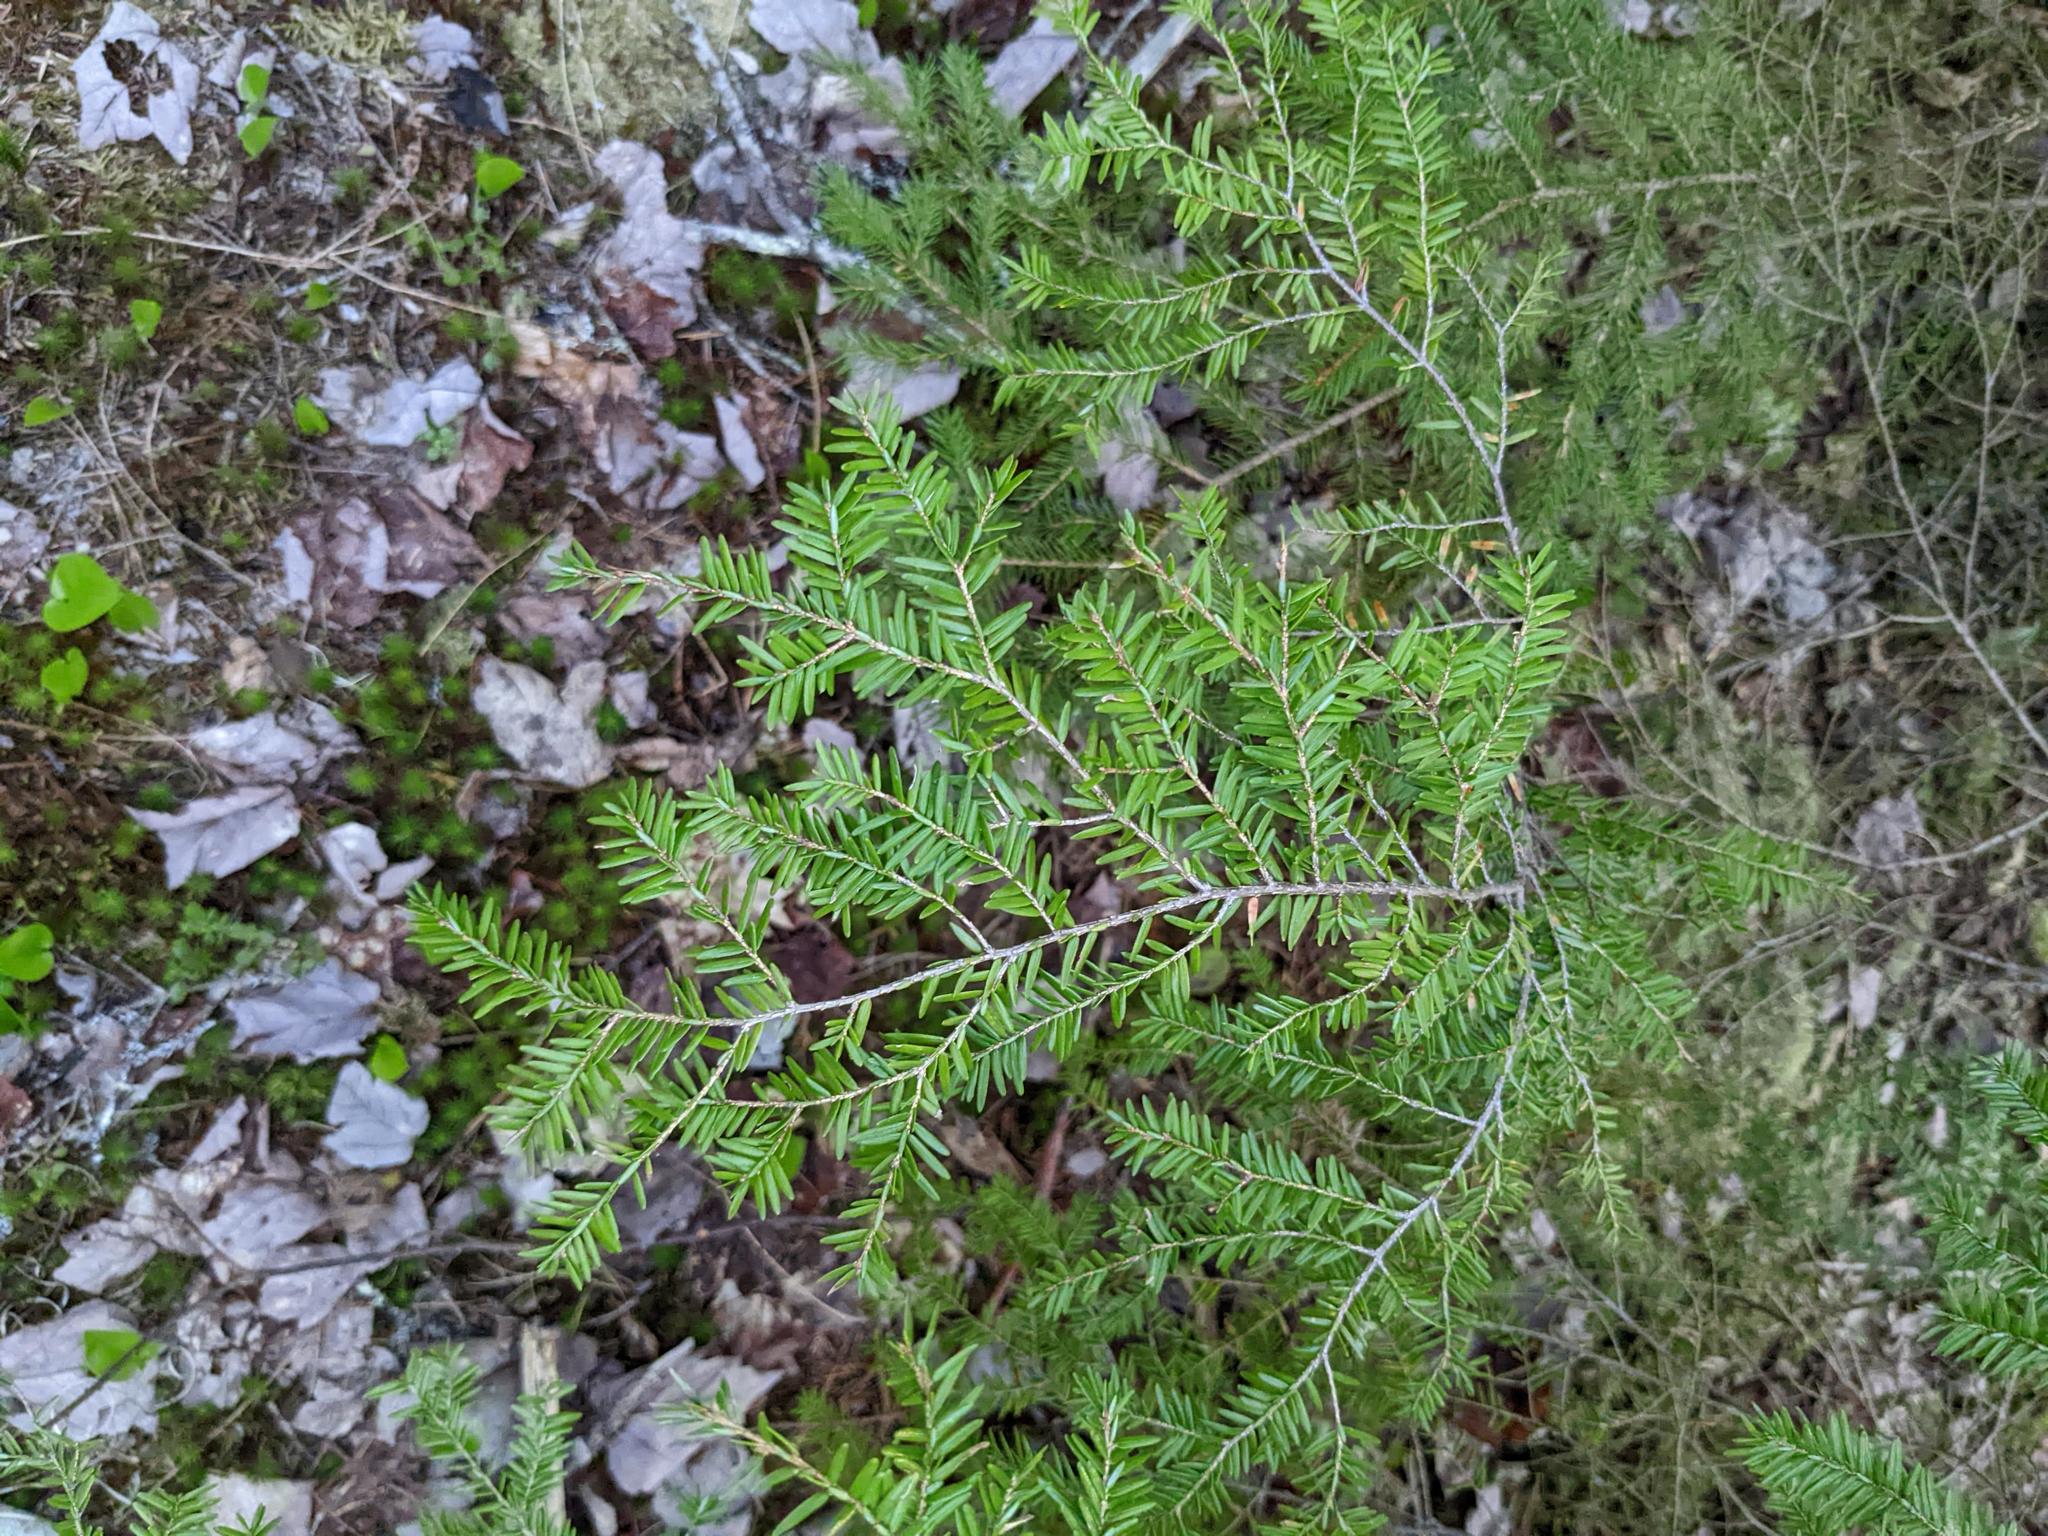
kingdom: Plantae
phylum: Tracheophyta
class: Pinopsida
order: Pinales
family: Pinaceae
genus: Tsuga
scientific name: Tsuga canadensis
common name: Eastern hemlock
